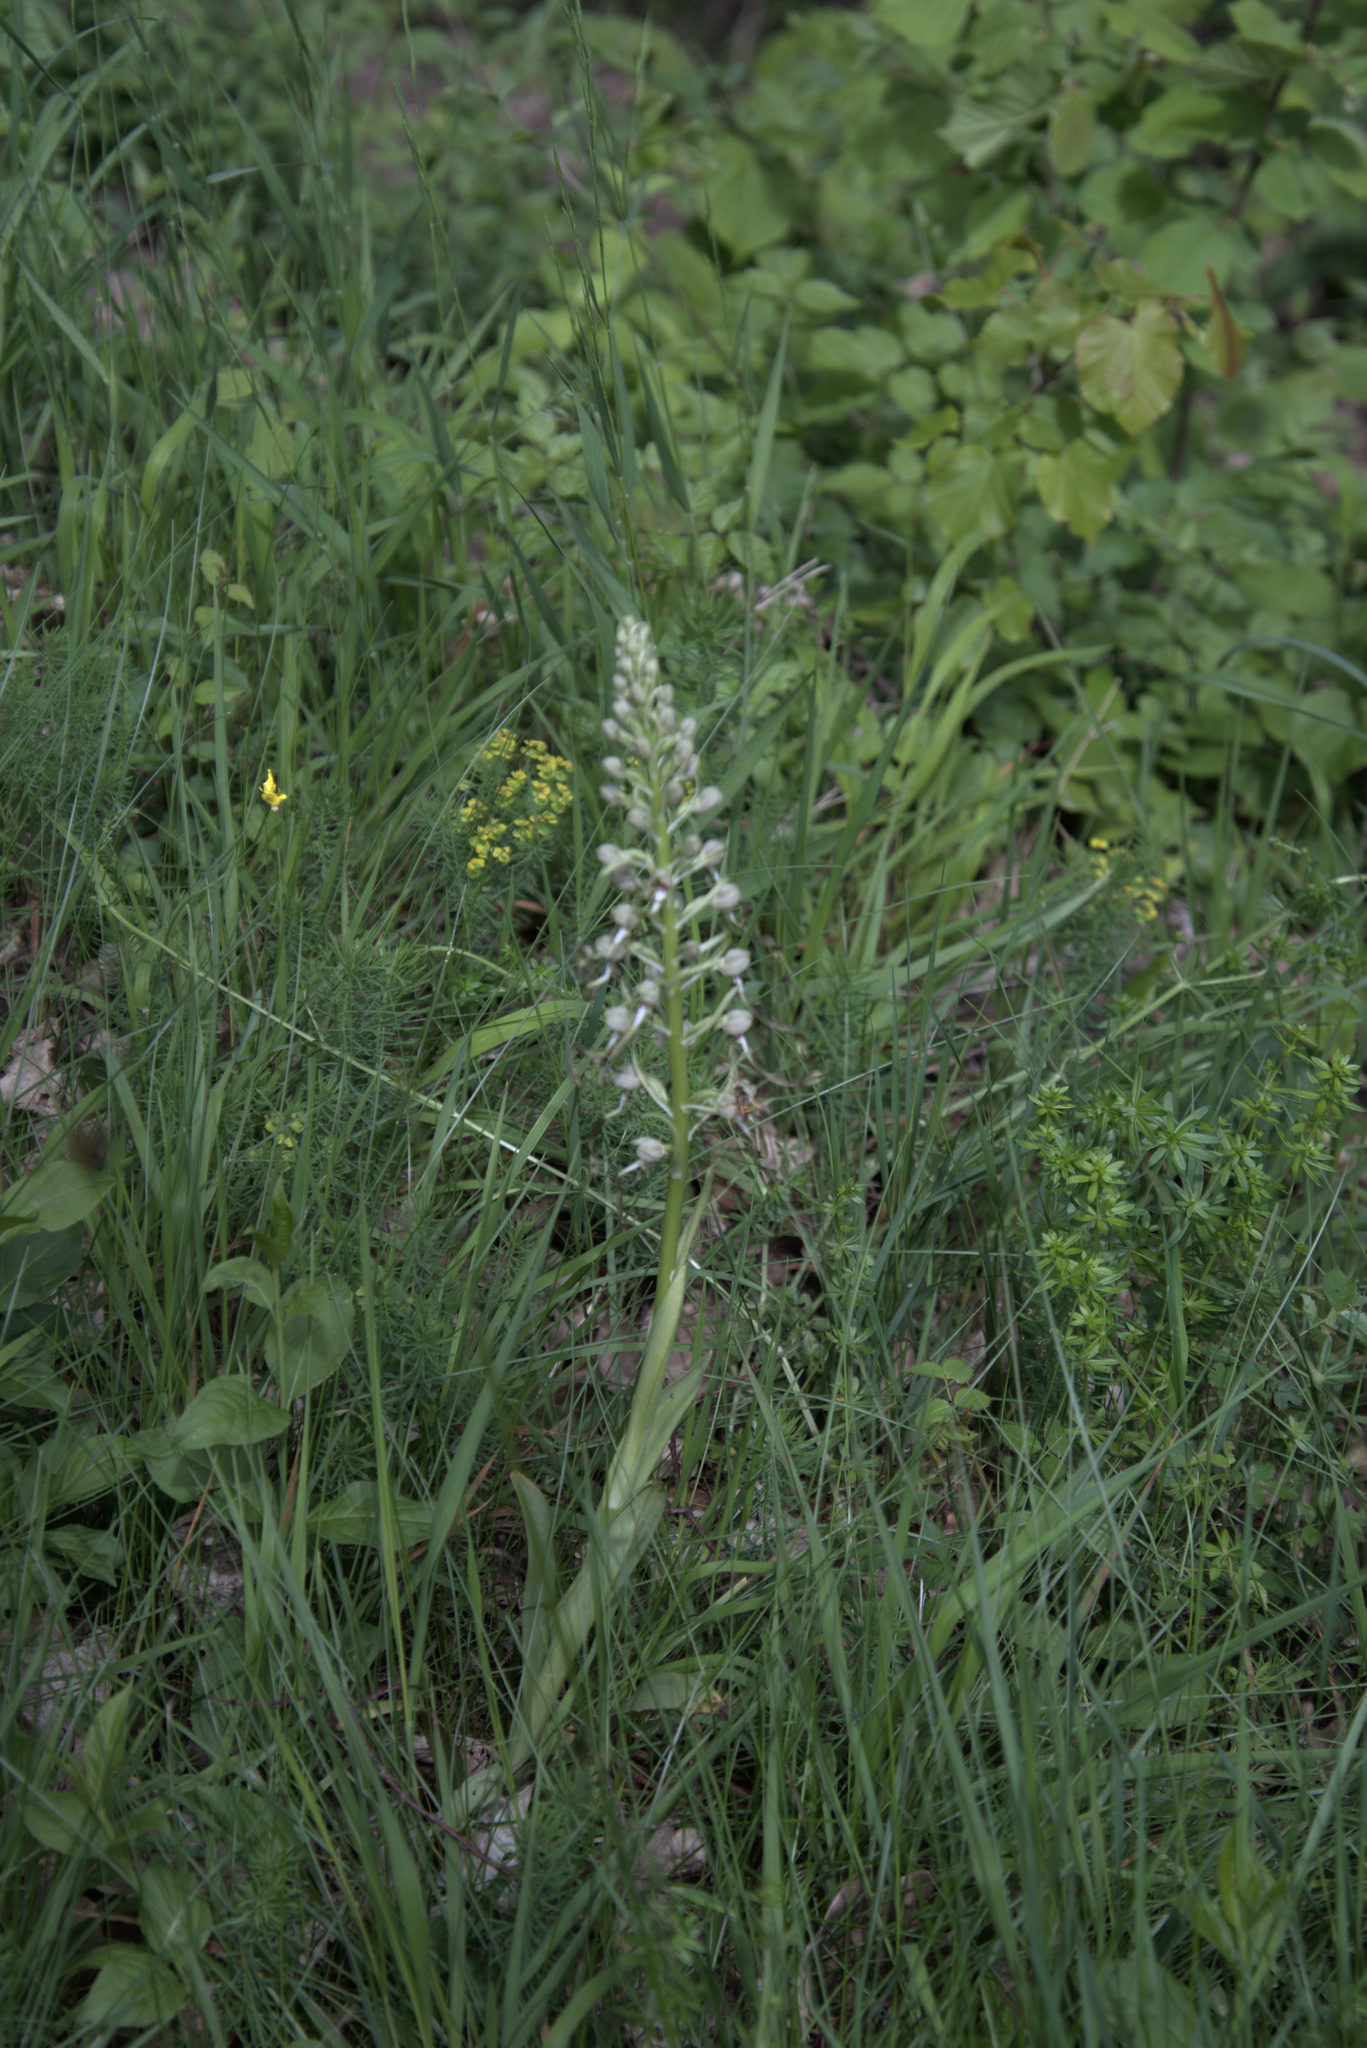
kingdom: Plantae
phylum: Tracheophyta
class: Liliopsida
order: Asparagales
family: Orchidaceae
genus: Himantoglossum
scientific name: Himantoglossum hircinum
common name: Lizard orchid
